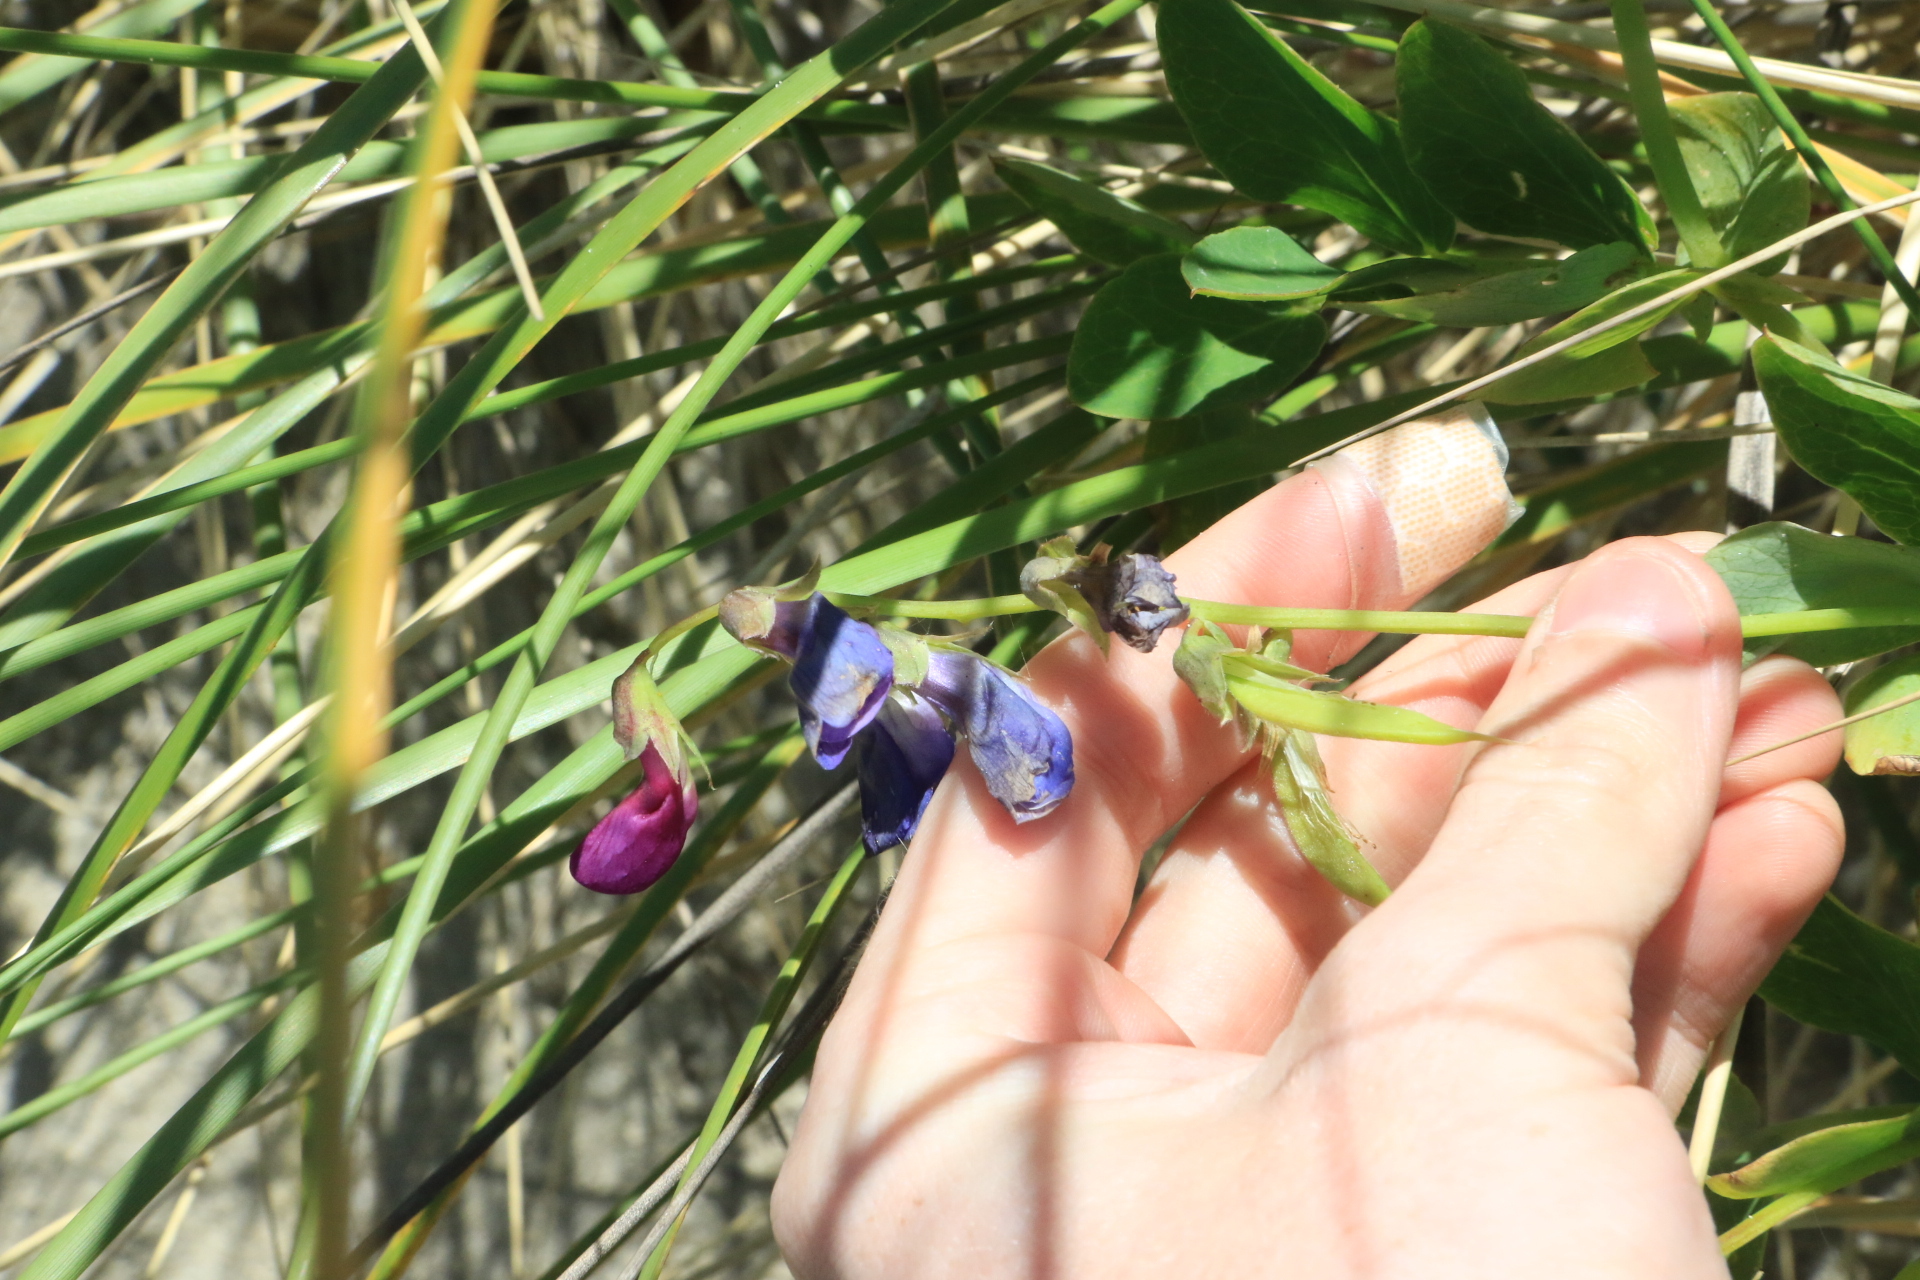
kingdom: Plantae
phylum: Tracheophyta
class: Magnoliopsida
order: Fabales
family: Fabaceae
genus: Lathyrus
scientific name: Lathyrus japonicus
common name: Sea pea
